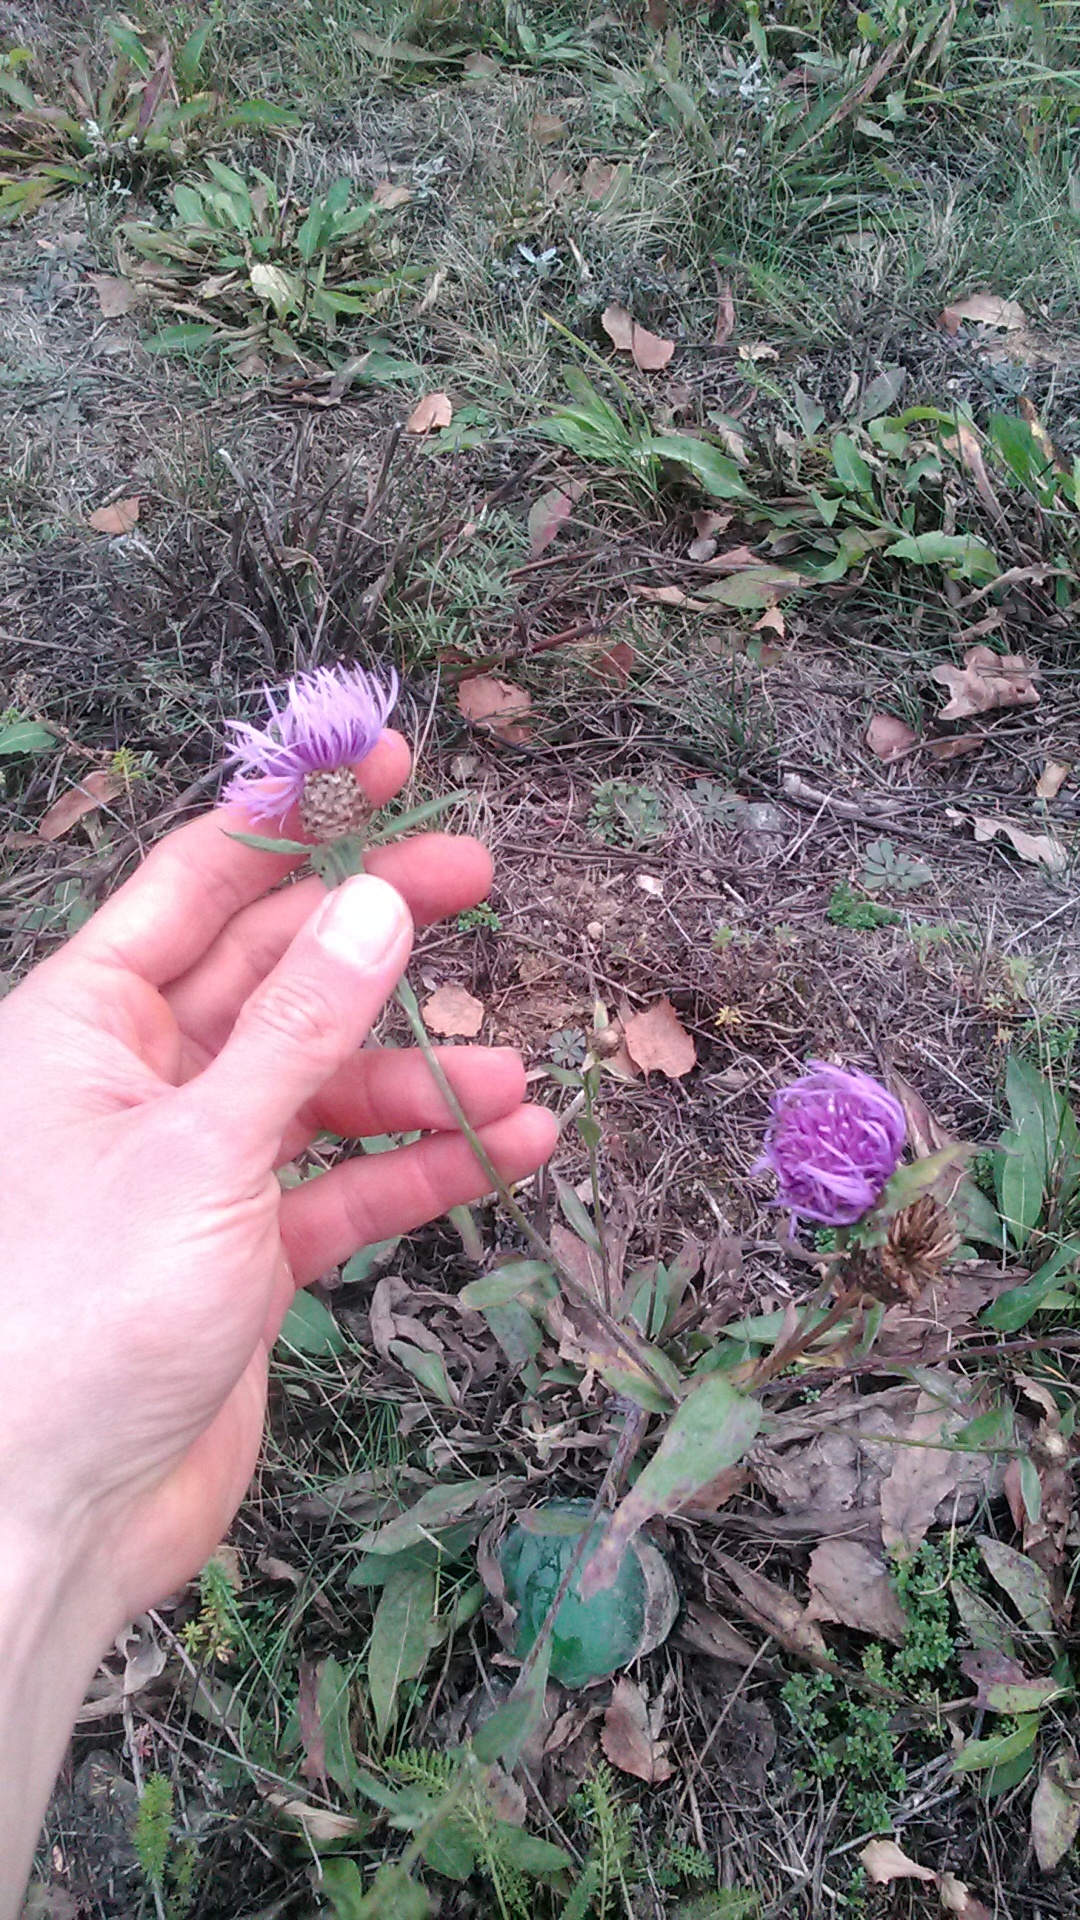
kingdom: Plantae
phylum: Tracheophyta
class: Magnoliopsida
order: Asterales
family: Asteraceae
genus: Centaurea
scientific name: Centaurea jacea
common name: Brown knapweed
